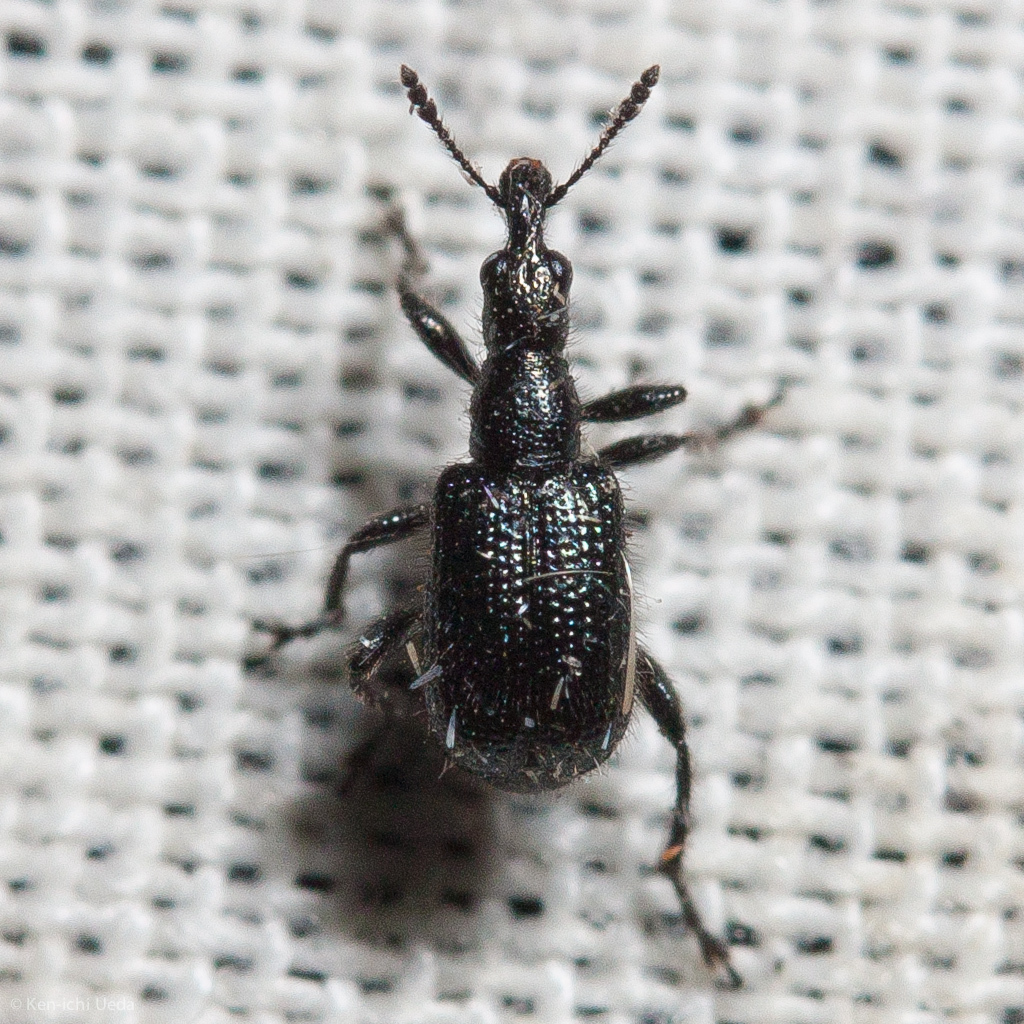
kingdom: Animalia
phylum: Arthropoda
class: Insecta
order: Coleoptera
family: Attelabidae
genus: Deporaus
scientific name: Deporaus glastinus
